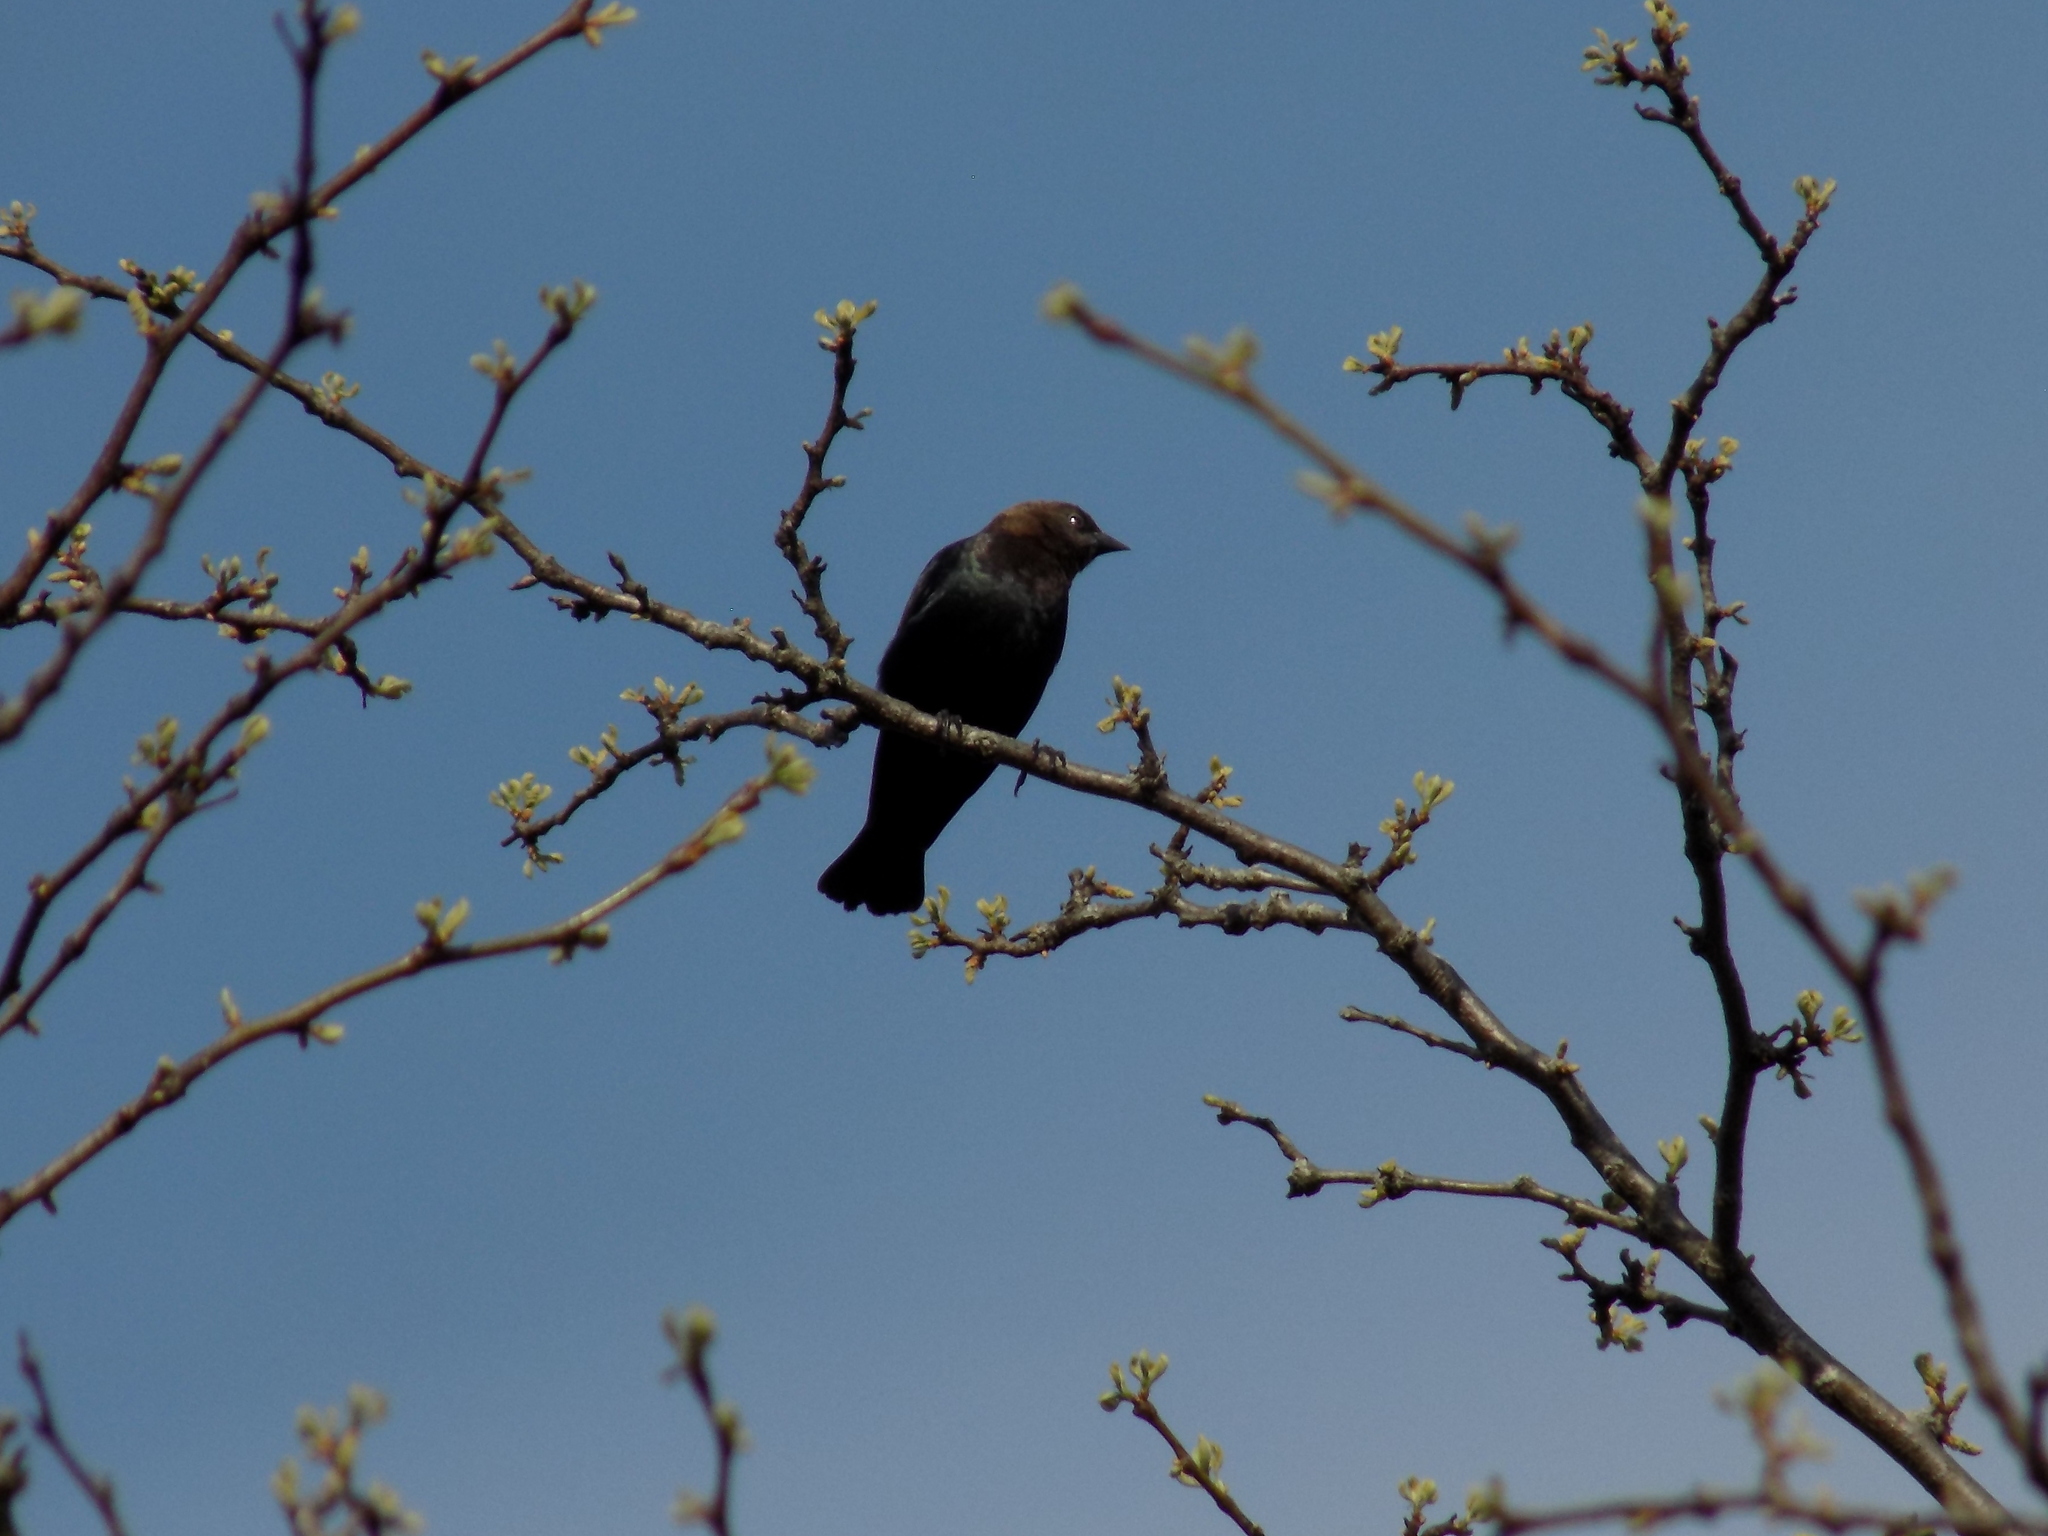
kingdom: Animalia
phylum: Chordata
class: Aves
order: Passeriformes
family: Icteridae
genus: Molothrus
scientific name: Molothrus ater
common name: Brown-headed cowbird
